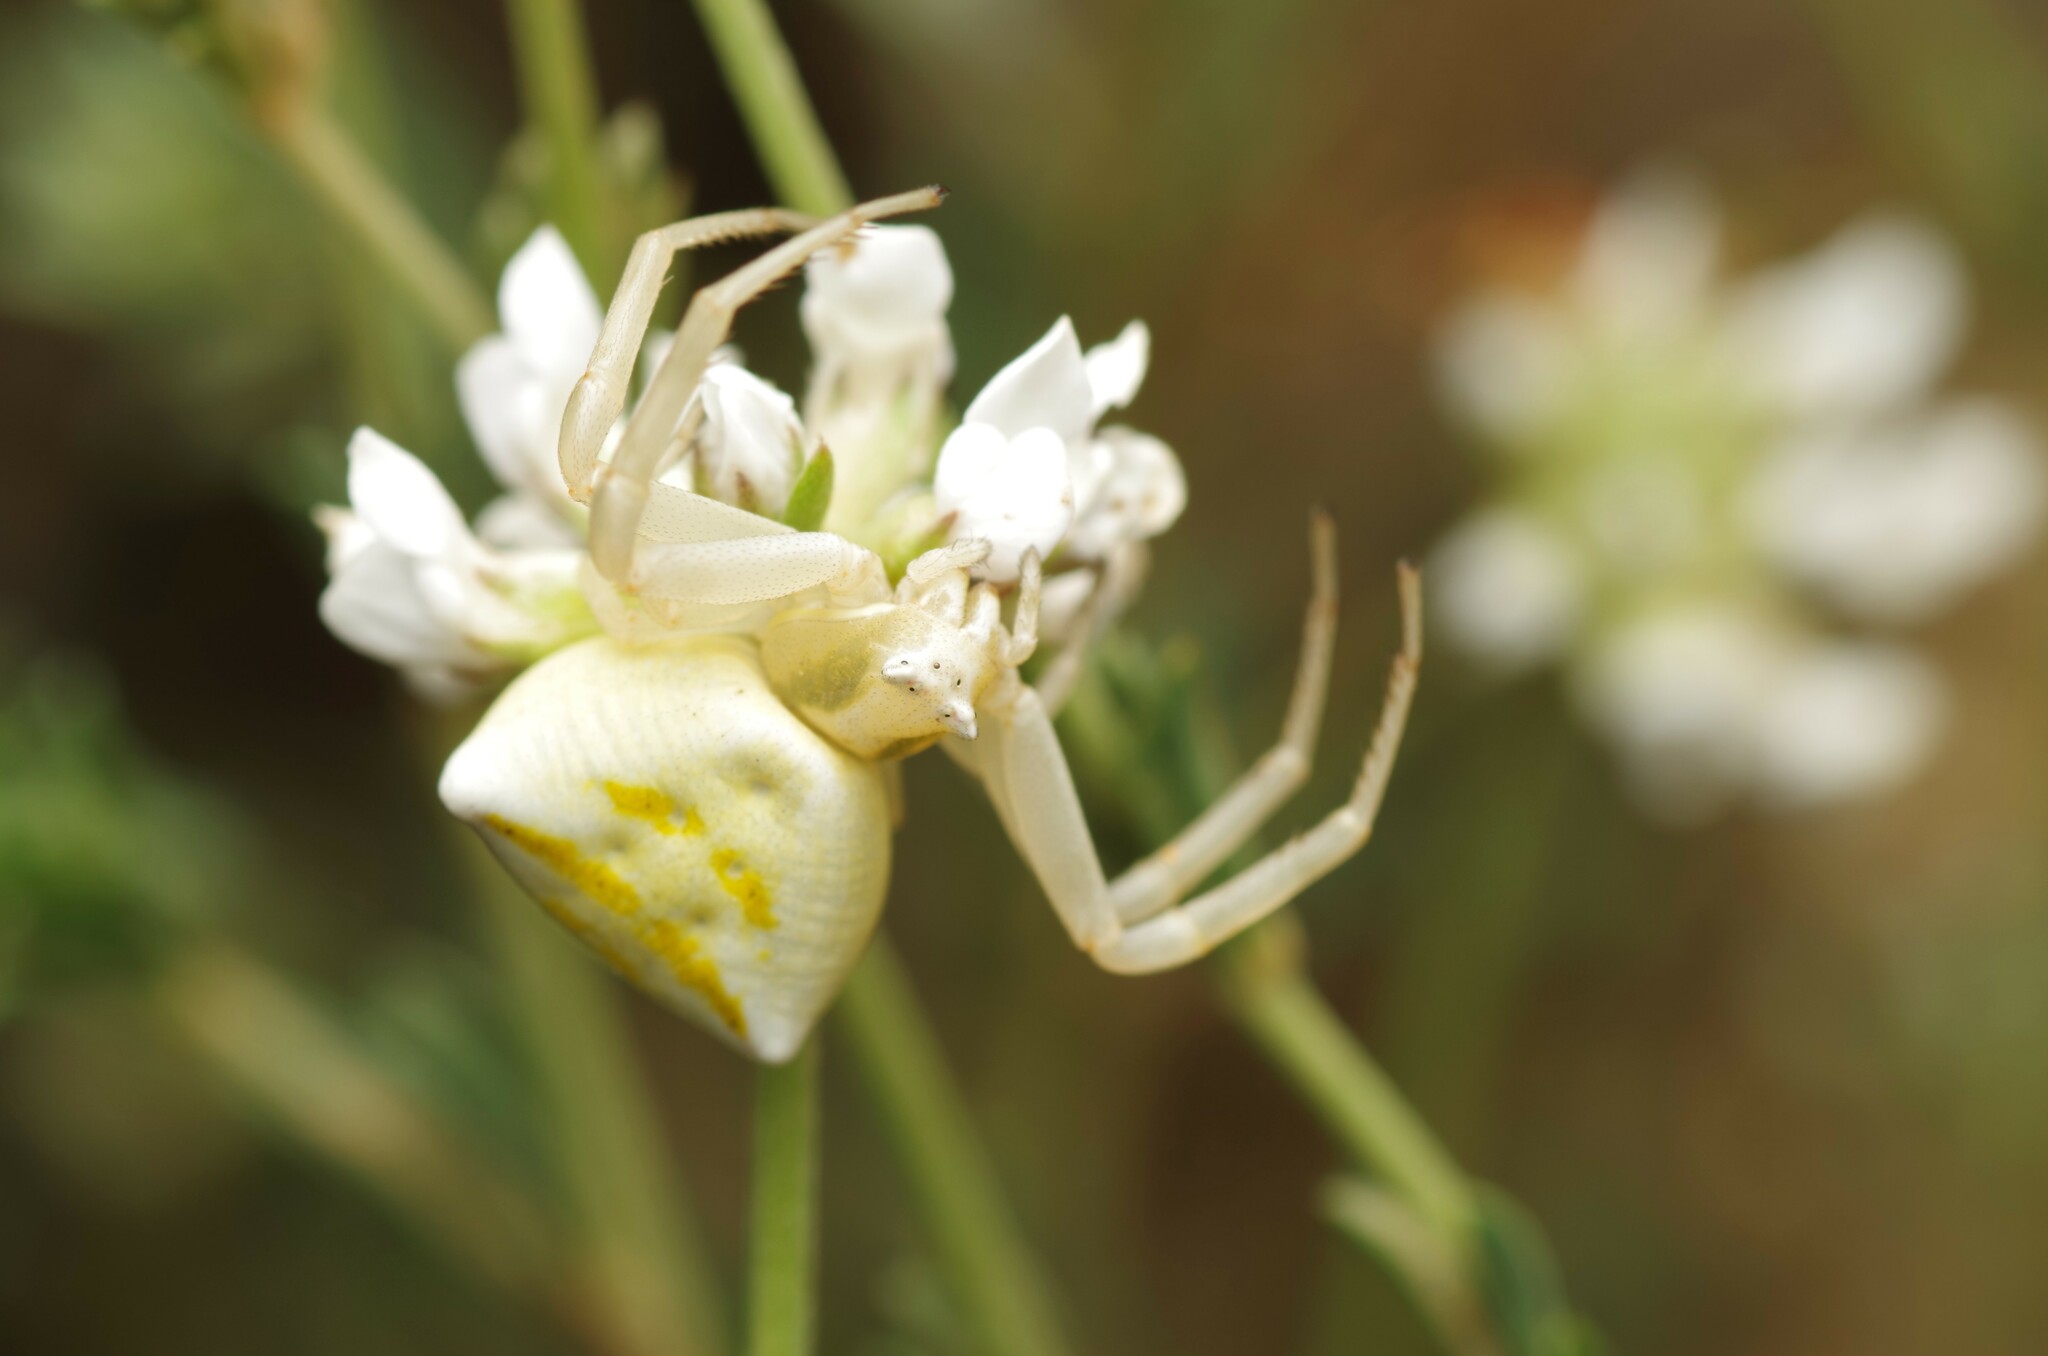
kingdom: Animalia
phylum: Arthropoda
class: Arachnida
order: Araneae
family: Thomisidae
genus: Thomisus
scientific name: Thomisus onustus
